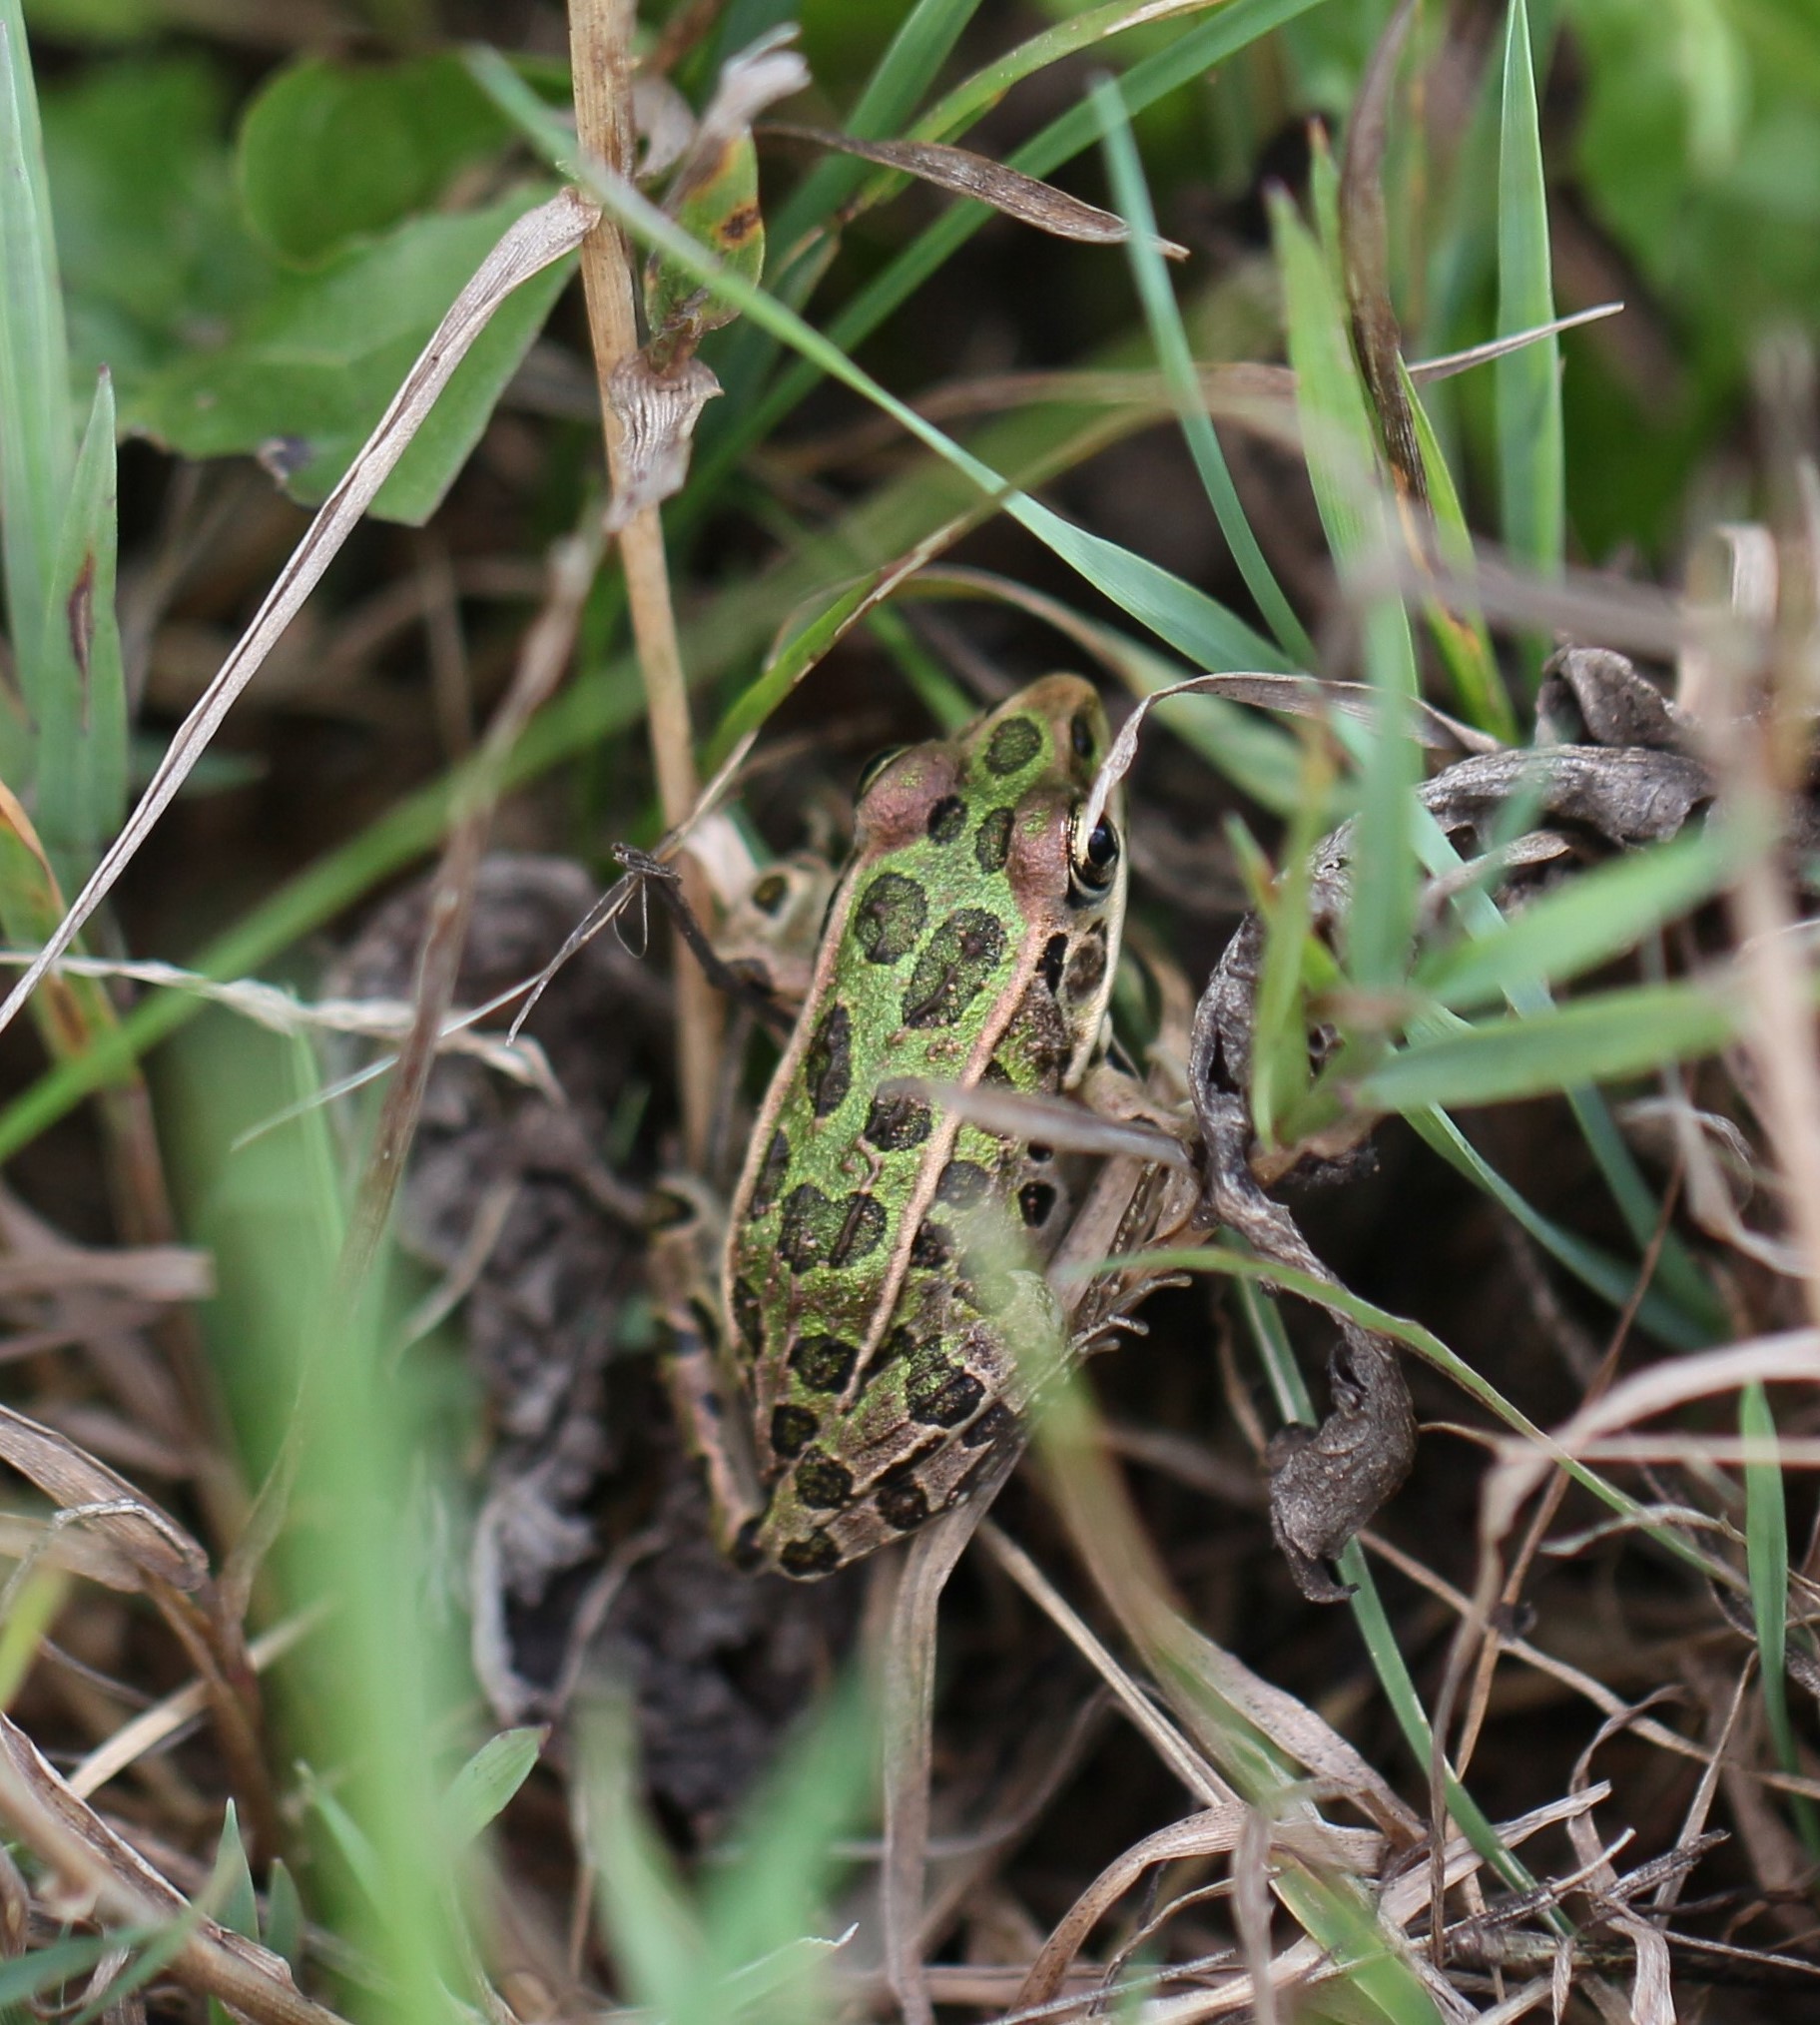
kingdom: Animalia
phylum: Chordata
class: Amphibia
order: Anura
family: Ranidae
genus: Lithobates
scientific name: Lithobates pipiens
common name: Northern leopard frog
